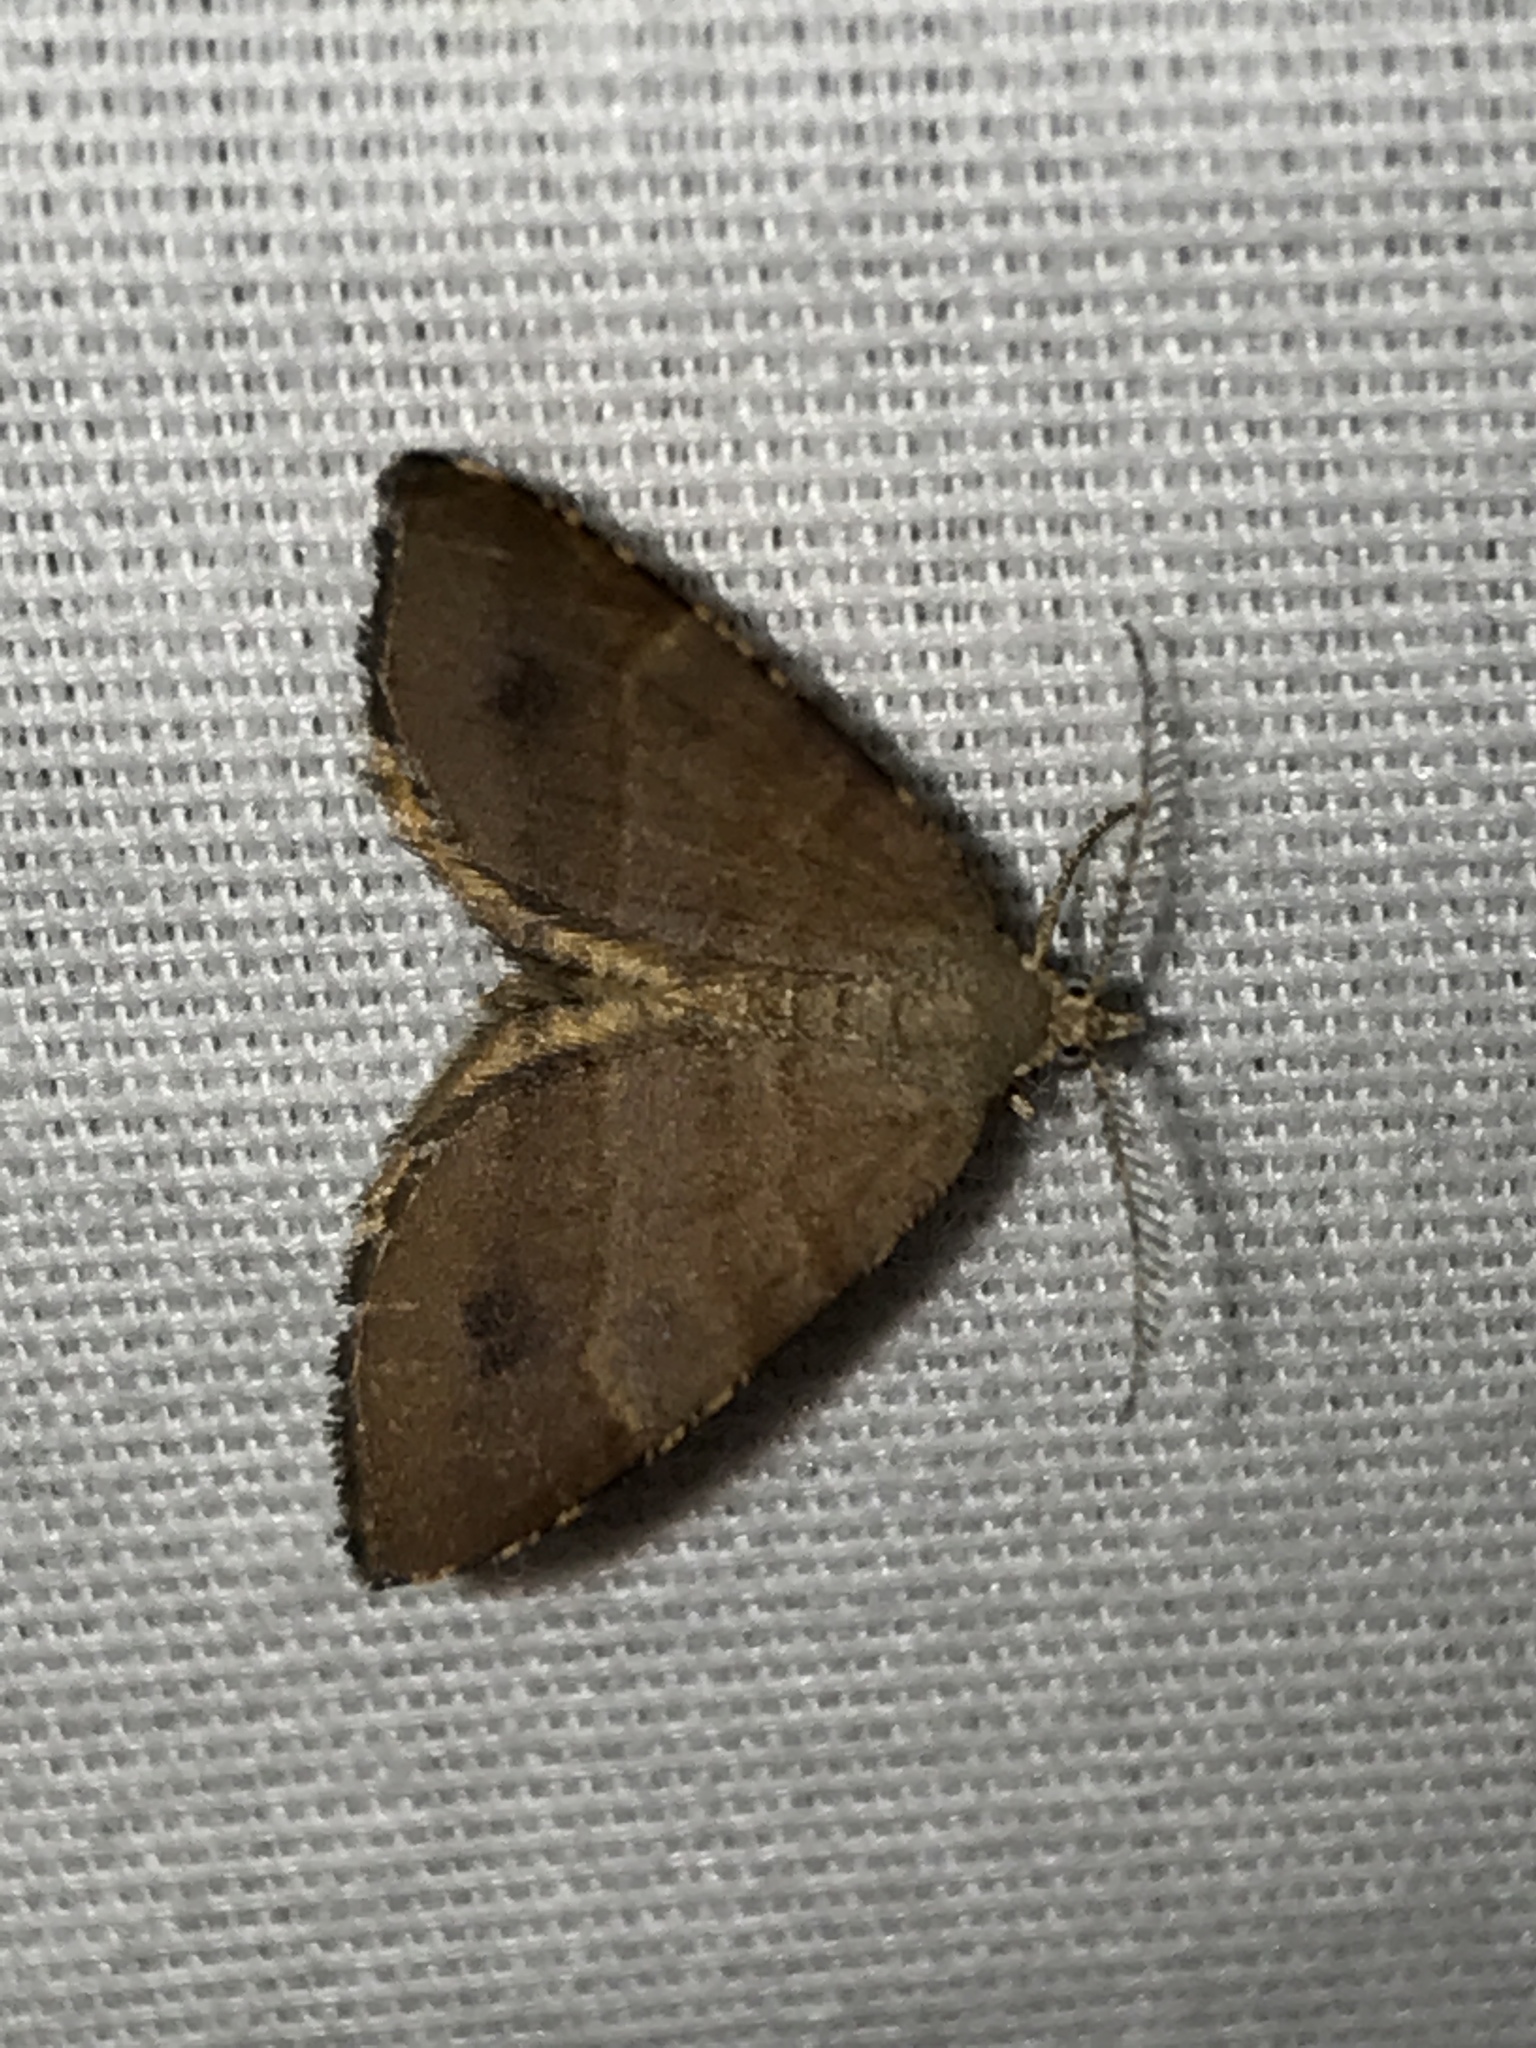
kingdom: Animalia
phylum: Arthropoda
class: Insecta
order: Lepidoptera
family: Geometridae
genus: Mellilla
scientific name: Mellilla xanthometata
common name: Orange wing moth
